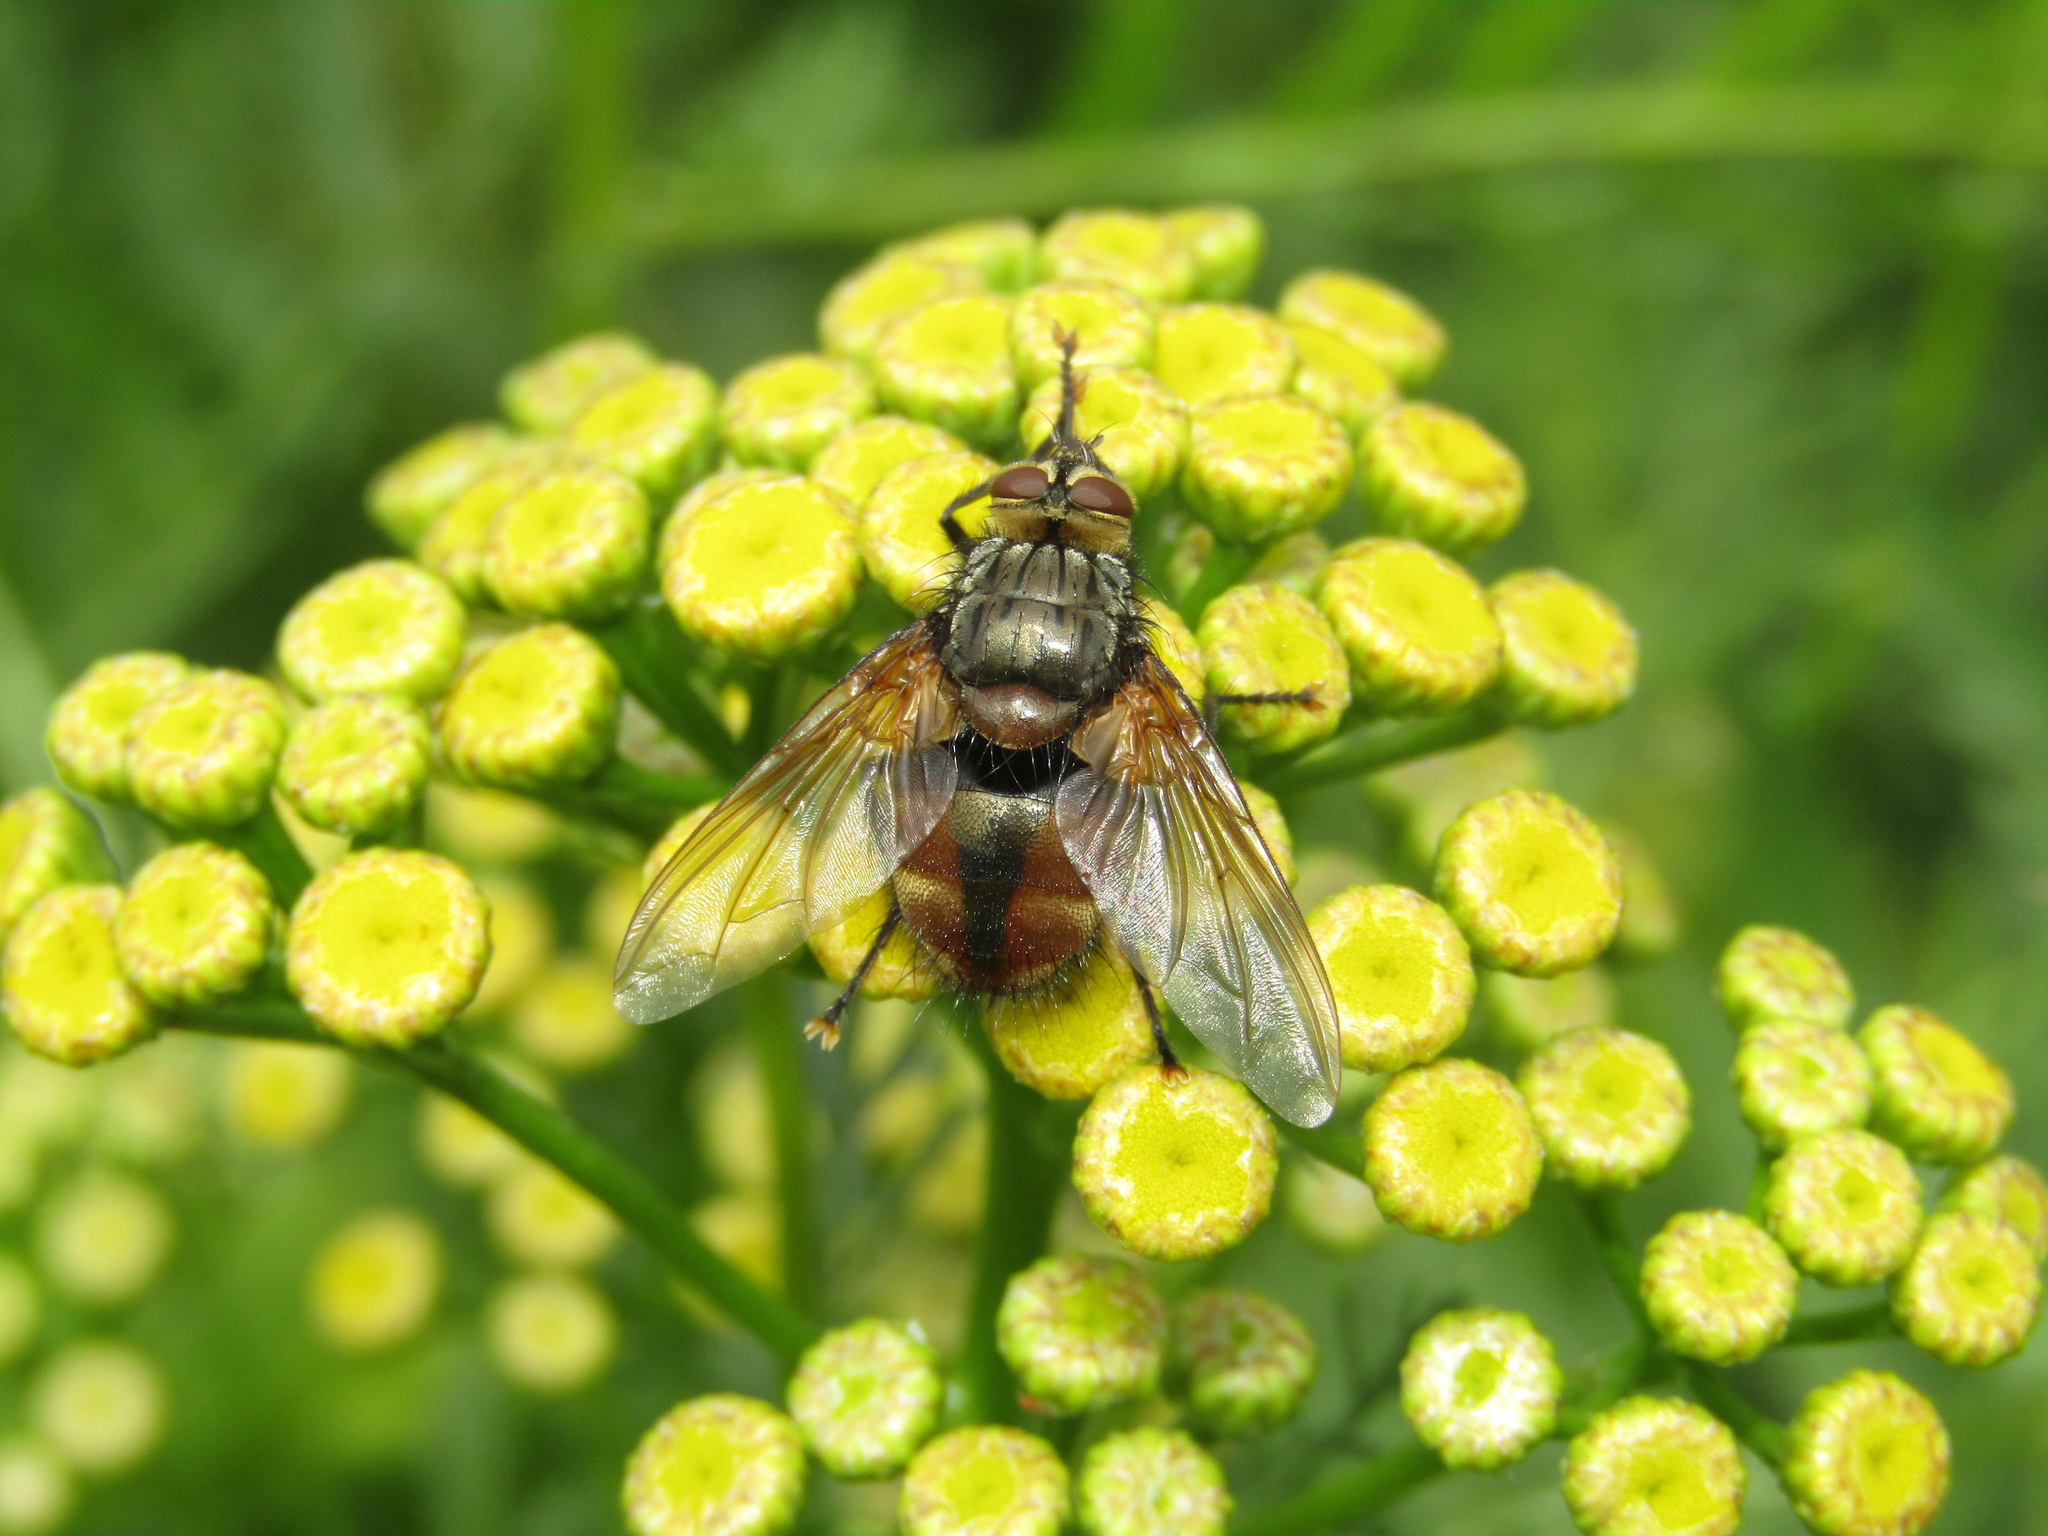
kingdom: Animalia
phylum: Arthropoda
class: Insecta
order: Diptera
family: Tachinidae
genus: Nemoraea
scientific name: Nemoraea pellucida
